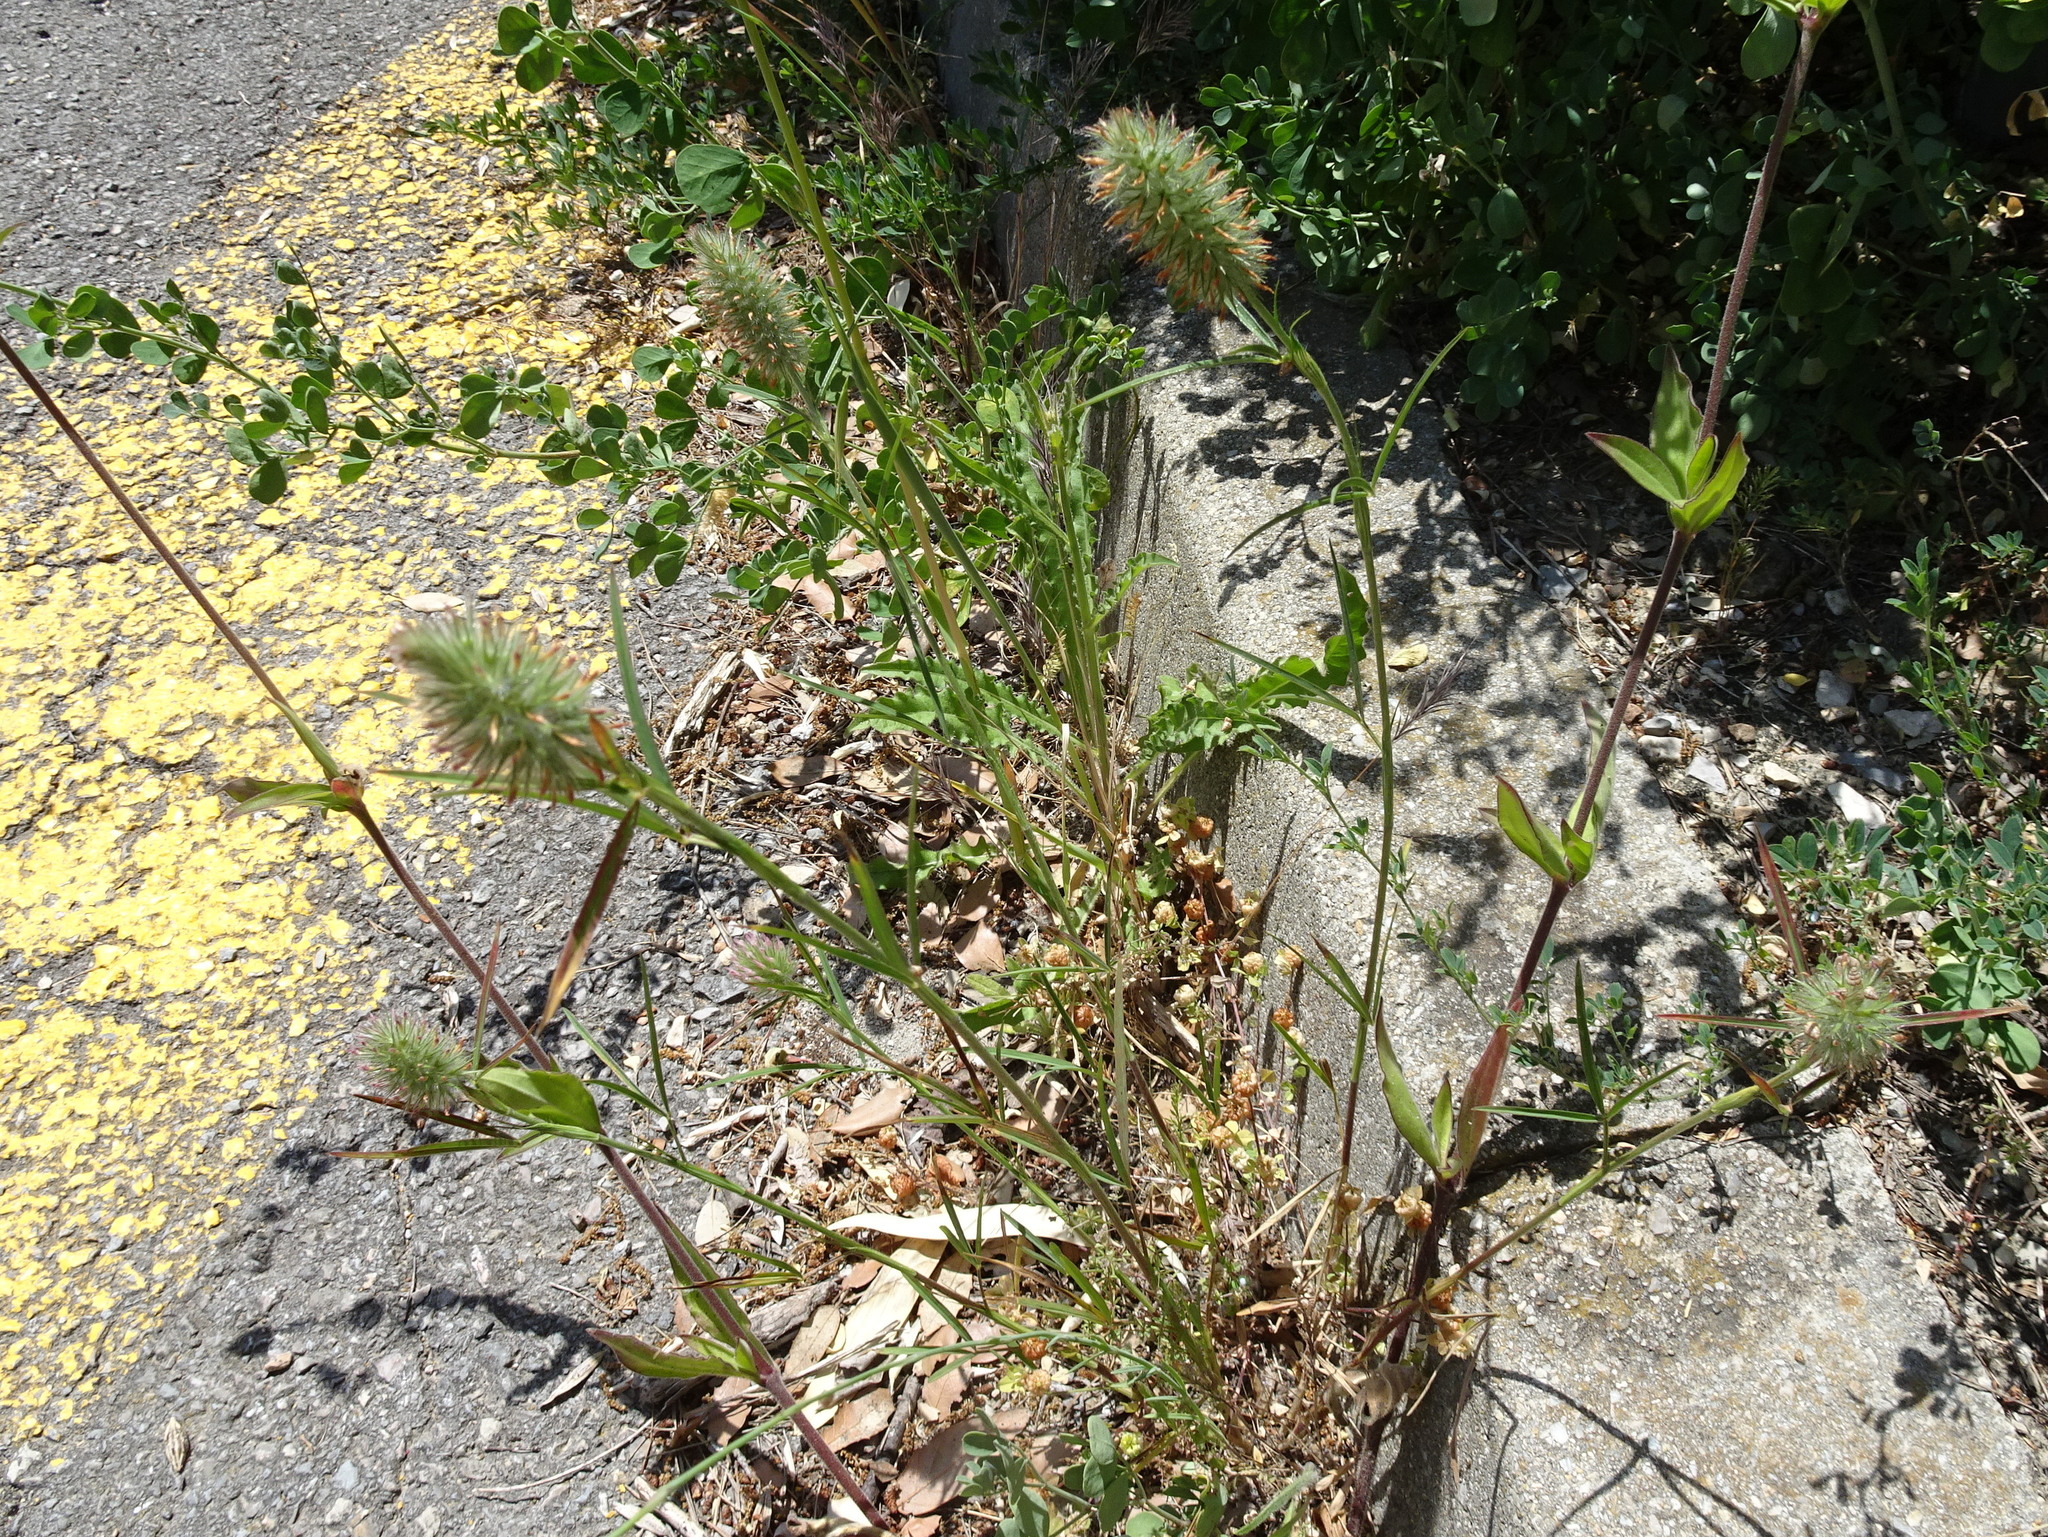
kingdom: Plantae
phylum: Tracheophyta
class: Magnoliopsida
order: Fabales
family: Fabaceae
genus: Trifolium
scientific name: Trifolium angustifolium
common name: Narrow clover
